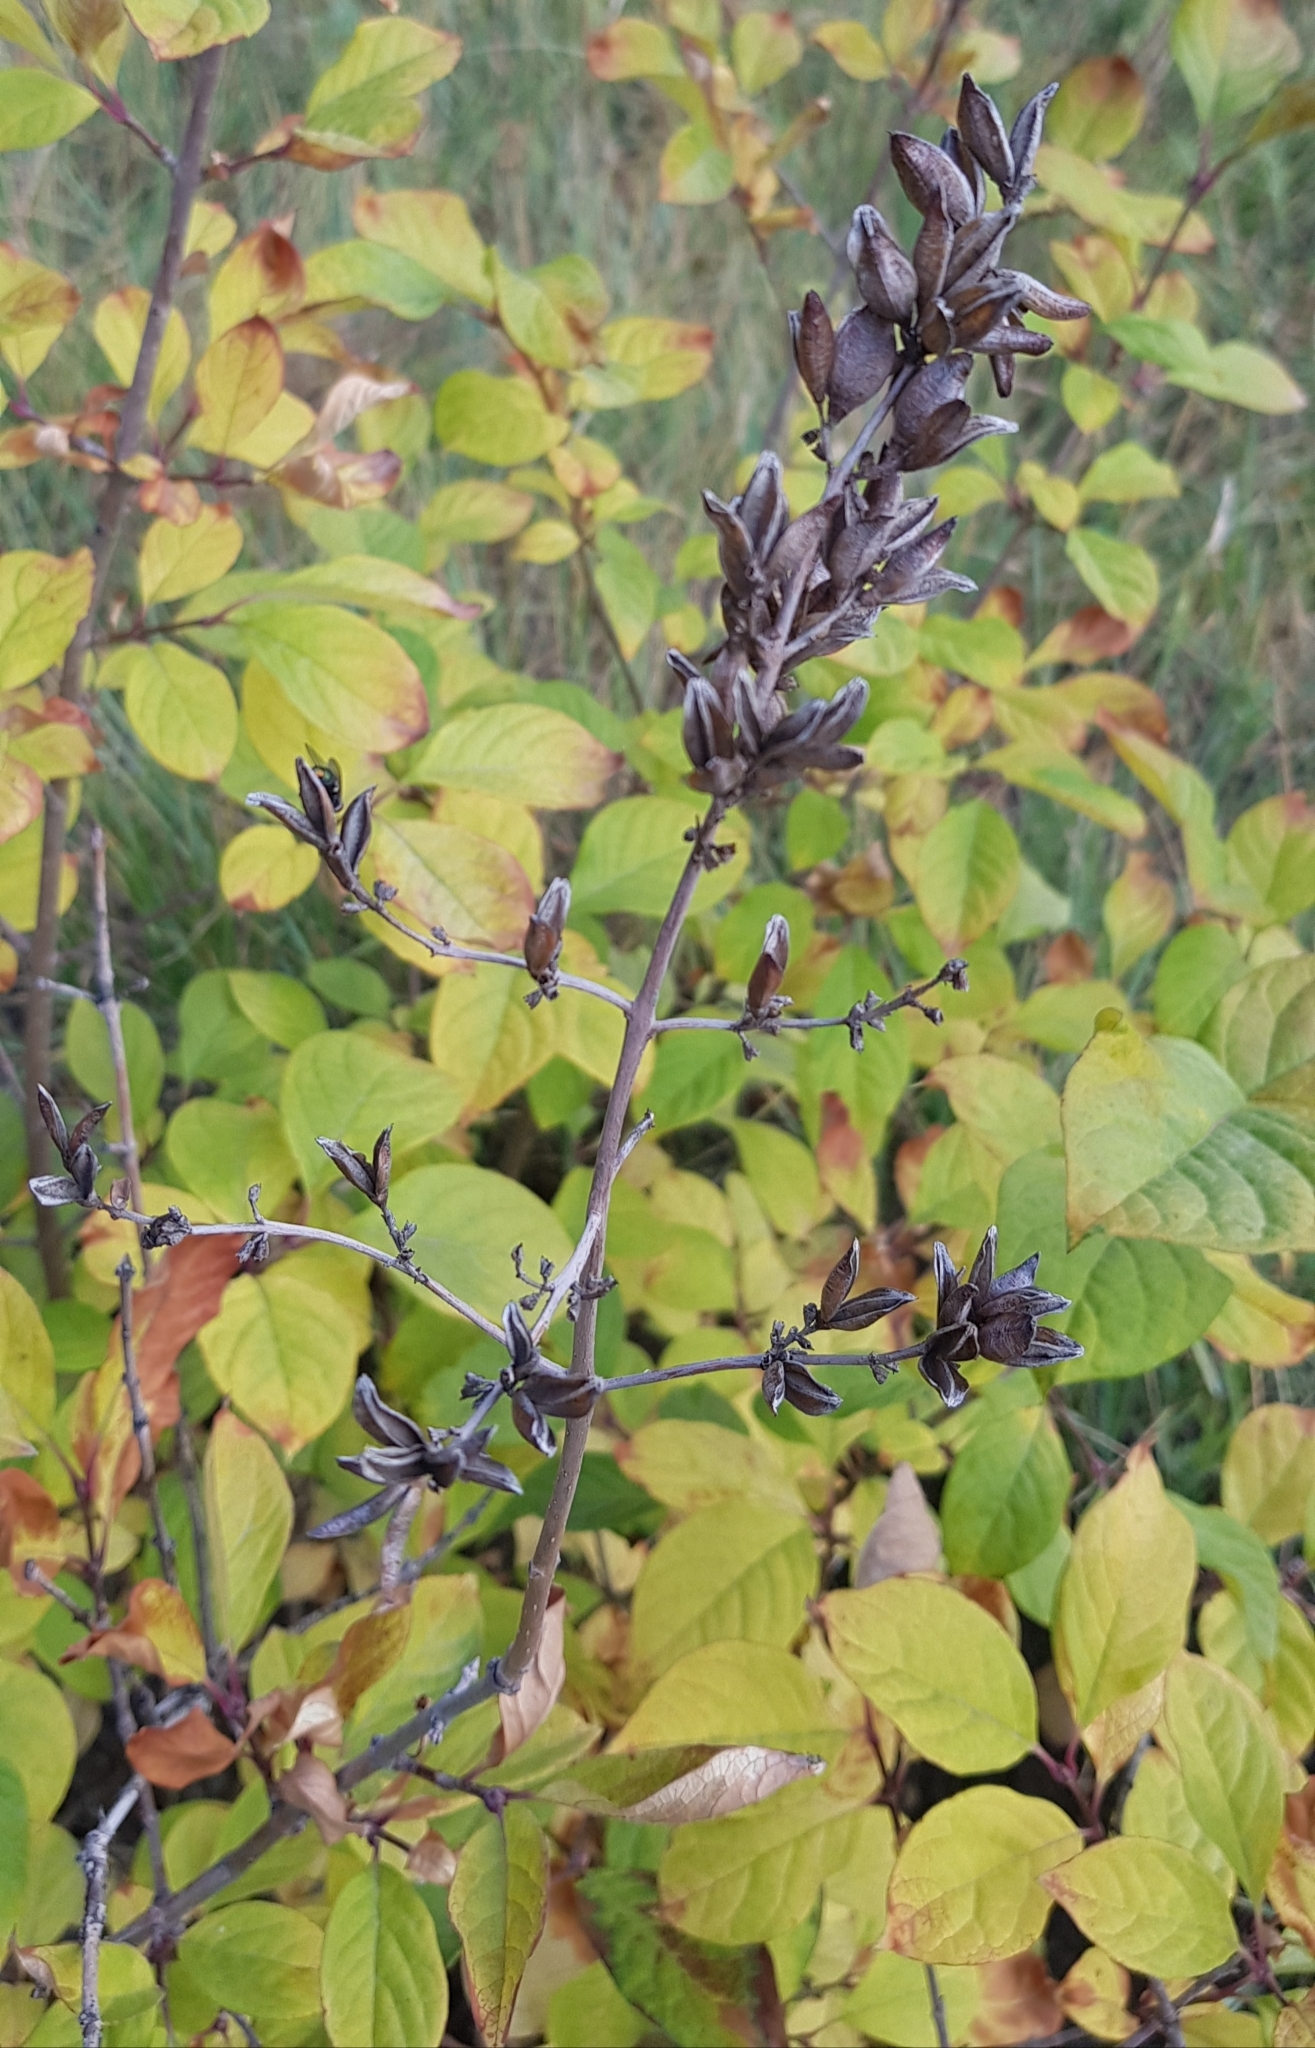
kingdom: Plantae
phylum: Tracheophyta
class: Magnoliopsida
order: Lamiales
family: Oleaceae
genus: Syringa
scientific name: Syringa josikaea
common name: Hungarian lilac
